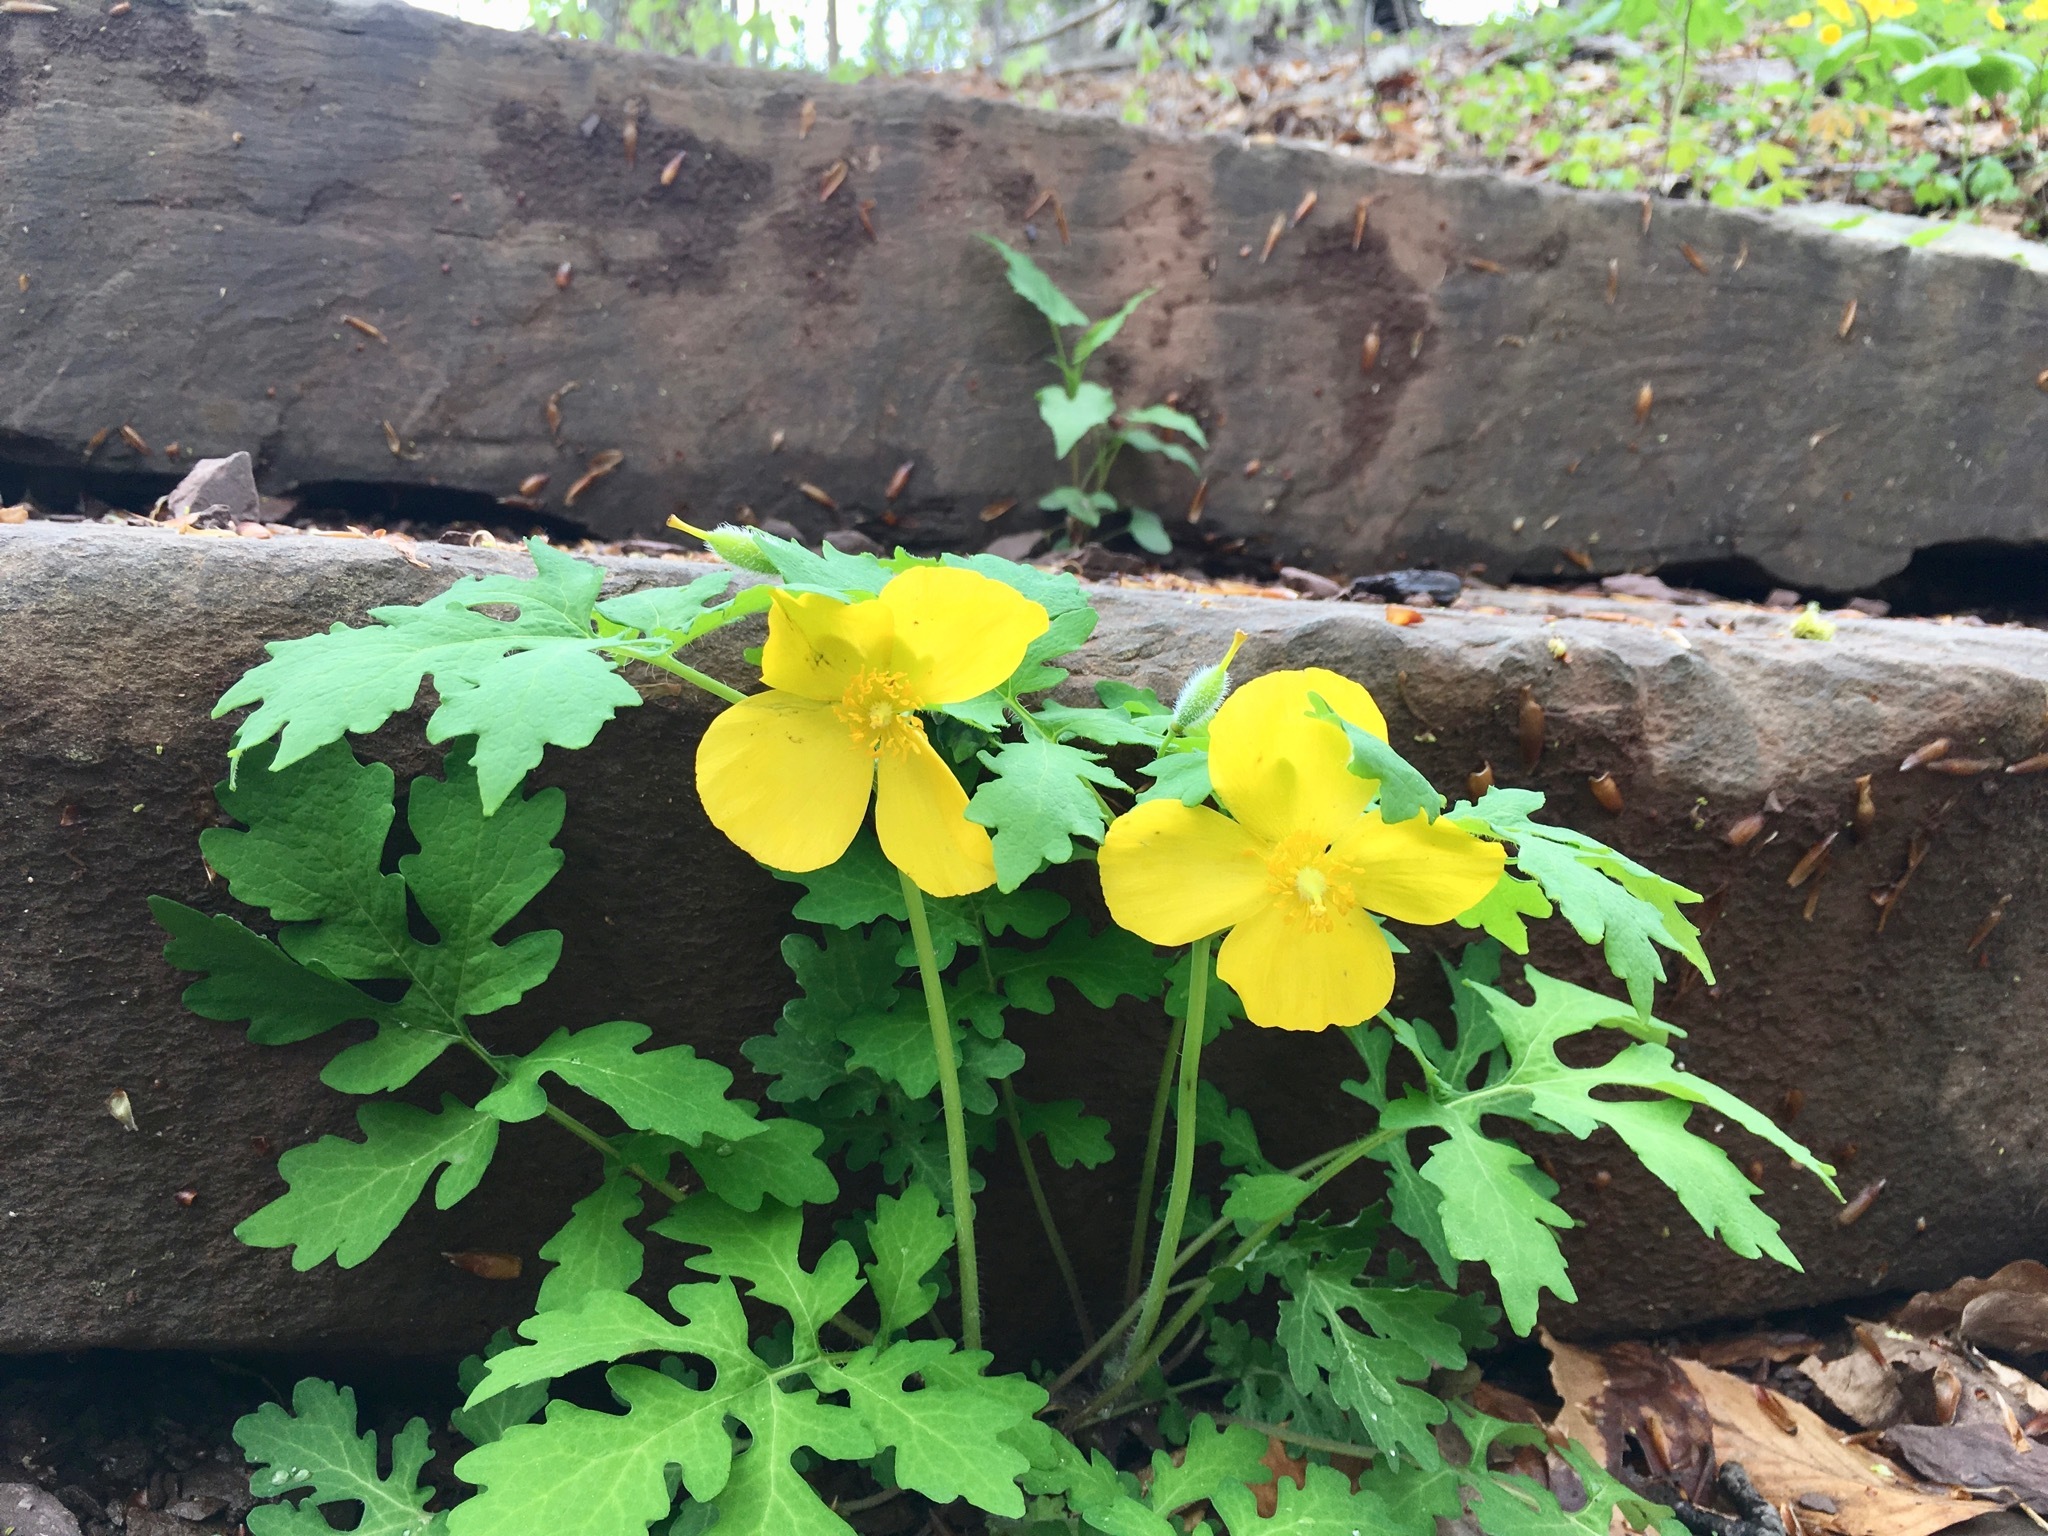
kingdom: Plantae
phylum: Tracheophyta
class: Magnoliopsida
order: Ranunculales
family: Papaveraceae
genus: Stylophorum
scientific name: Stylophorum diphyllum
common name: Celandine poppy
